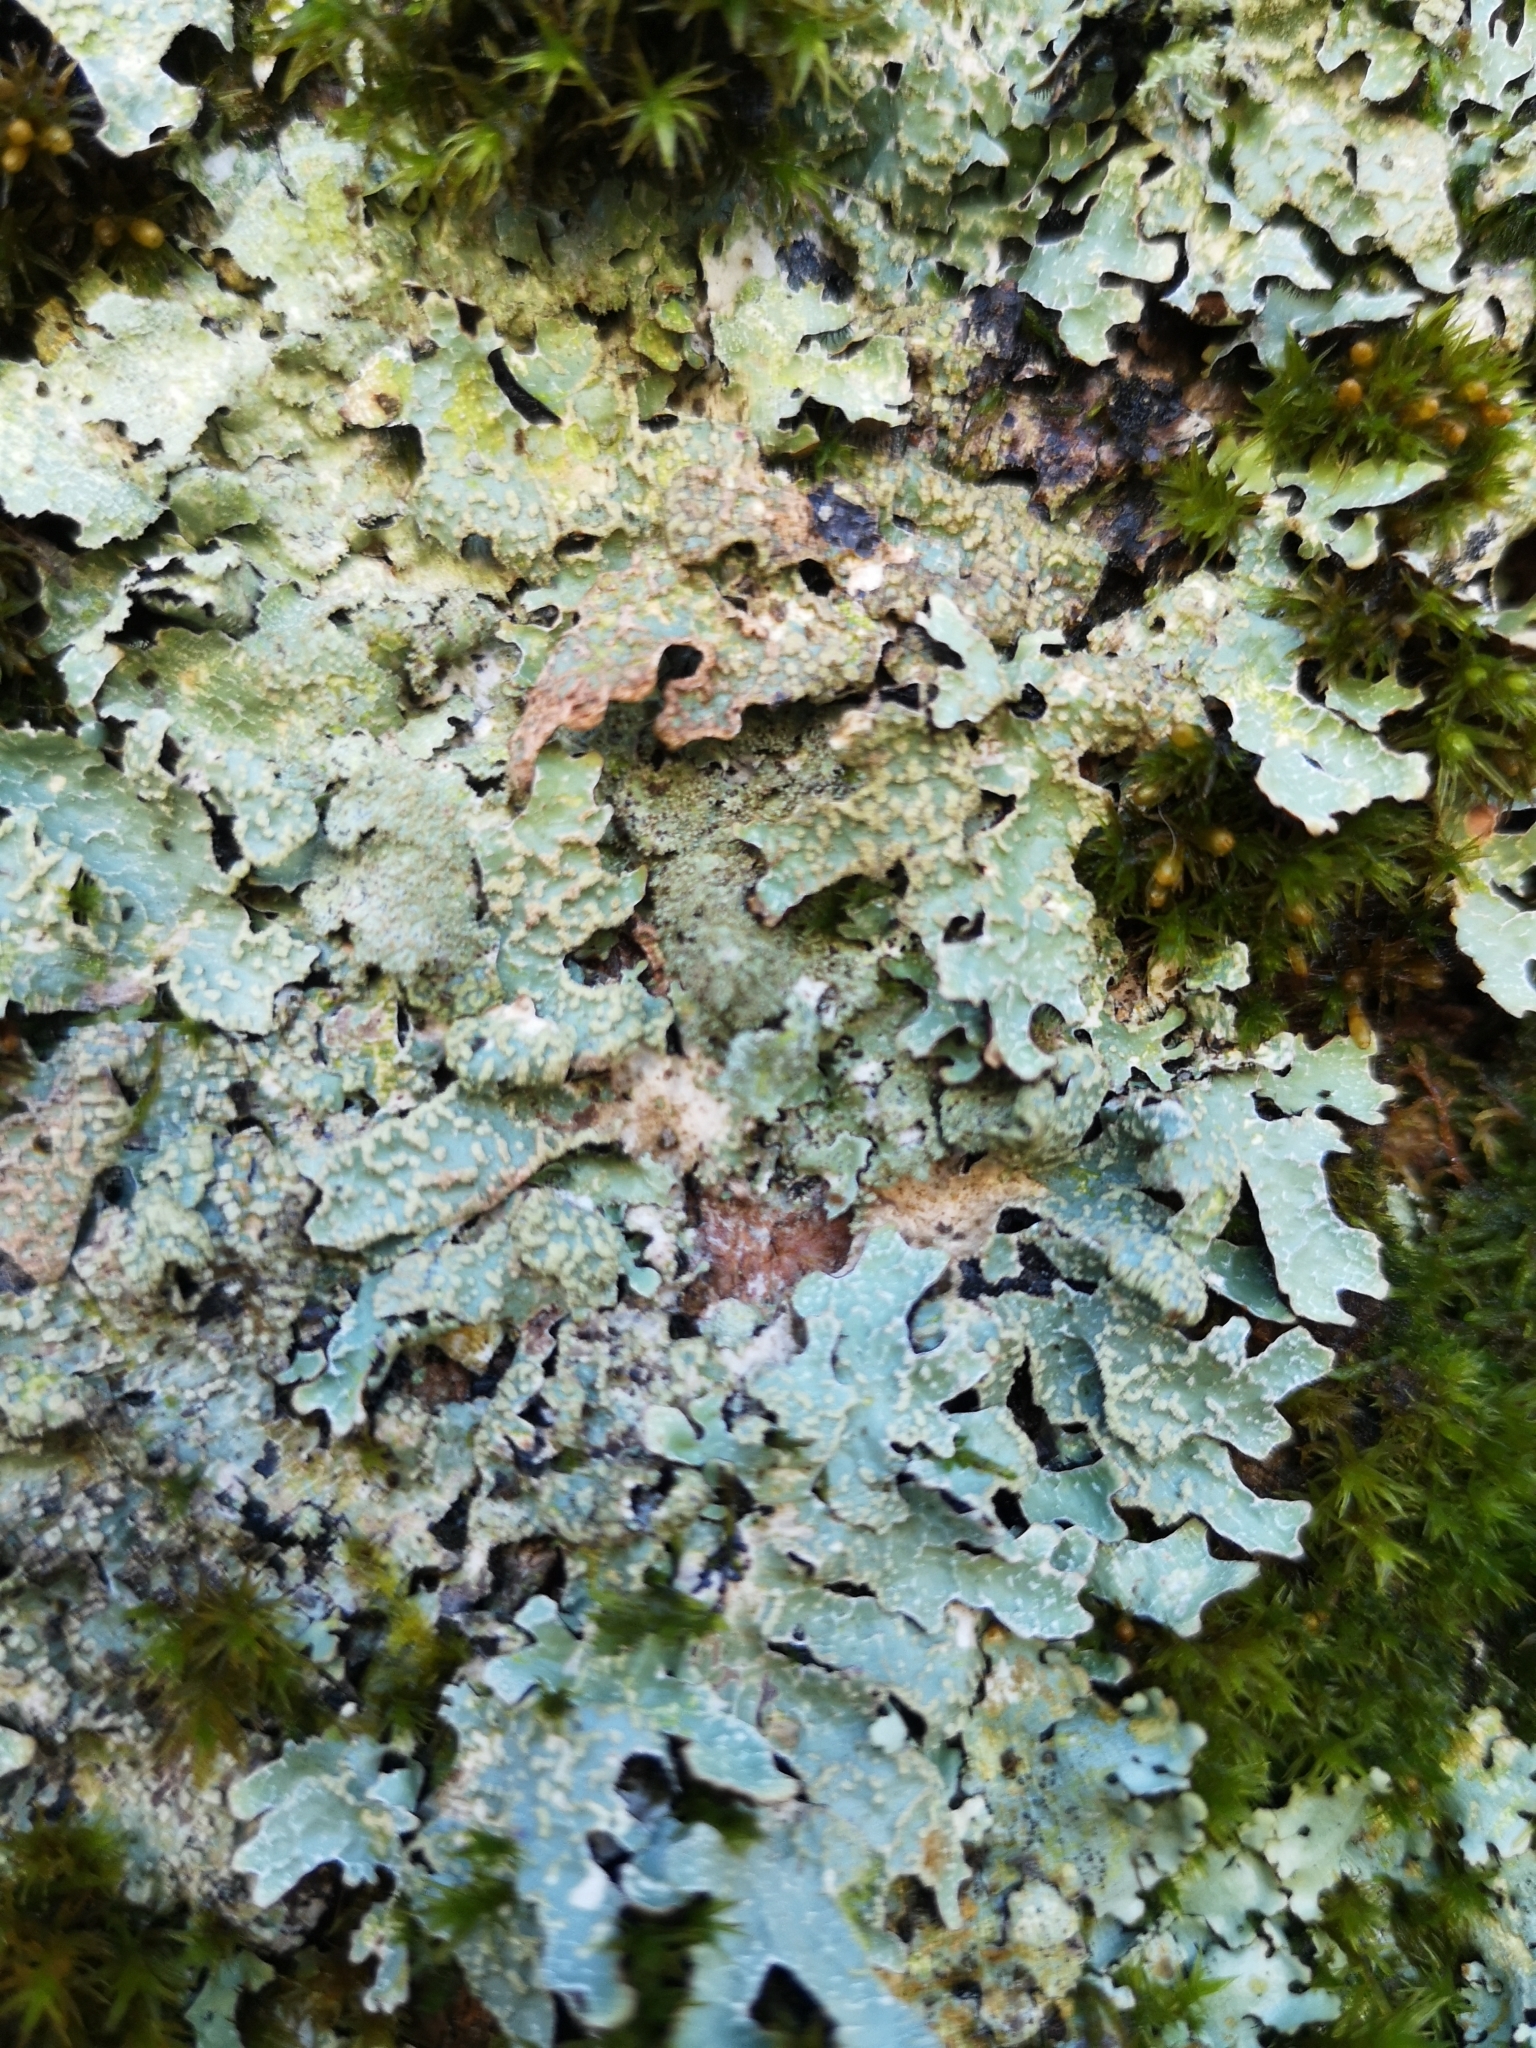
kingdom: Fungi
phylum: Ascomycota
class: Lecanoromycetes
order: Lecanorales
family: Parmeliaceae
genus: Parmelia
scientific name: Parmelia sulcata
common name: Netted shield lichen
